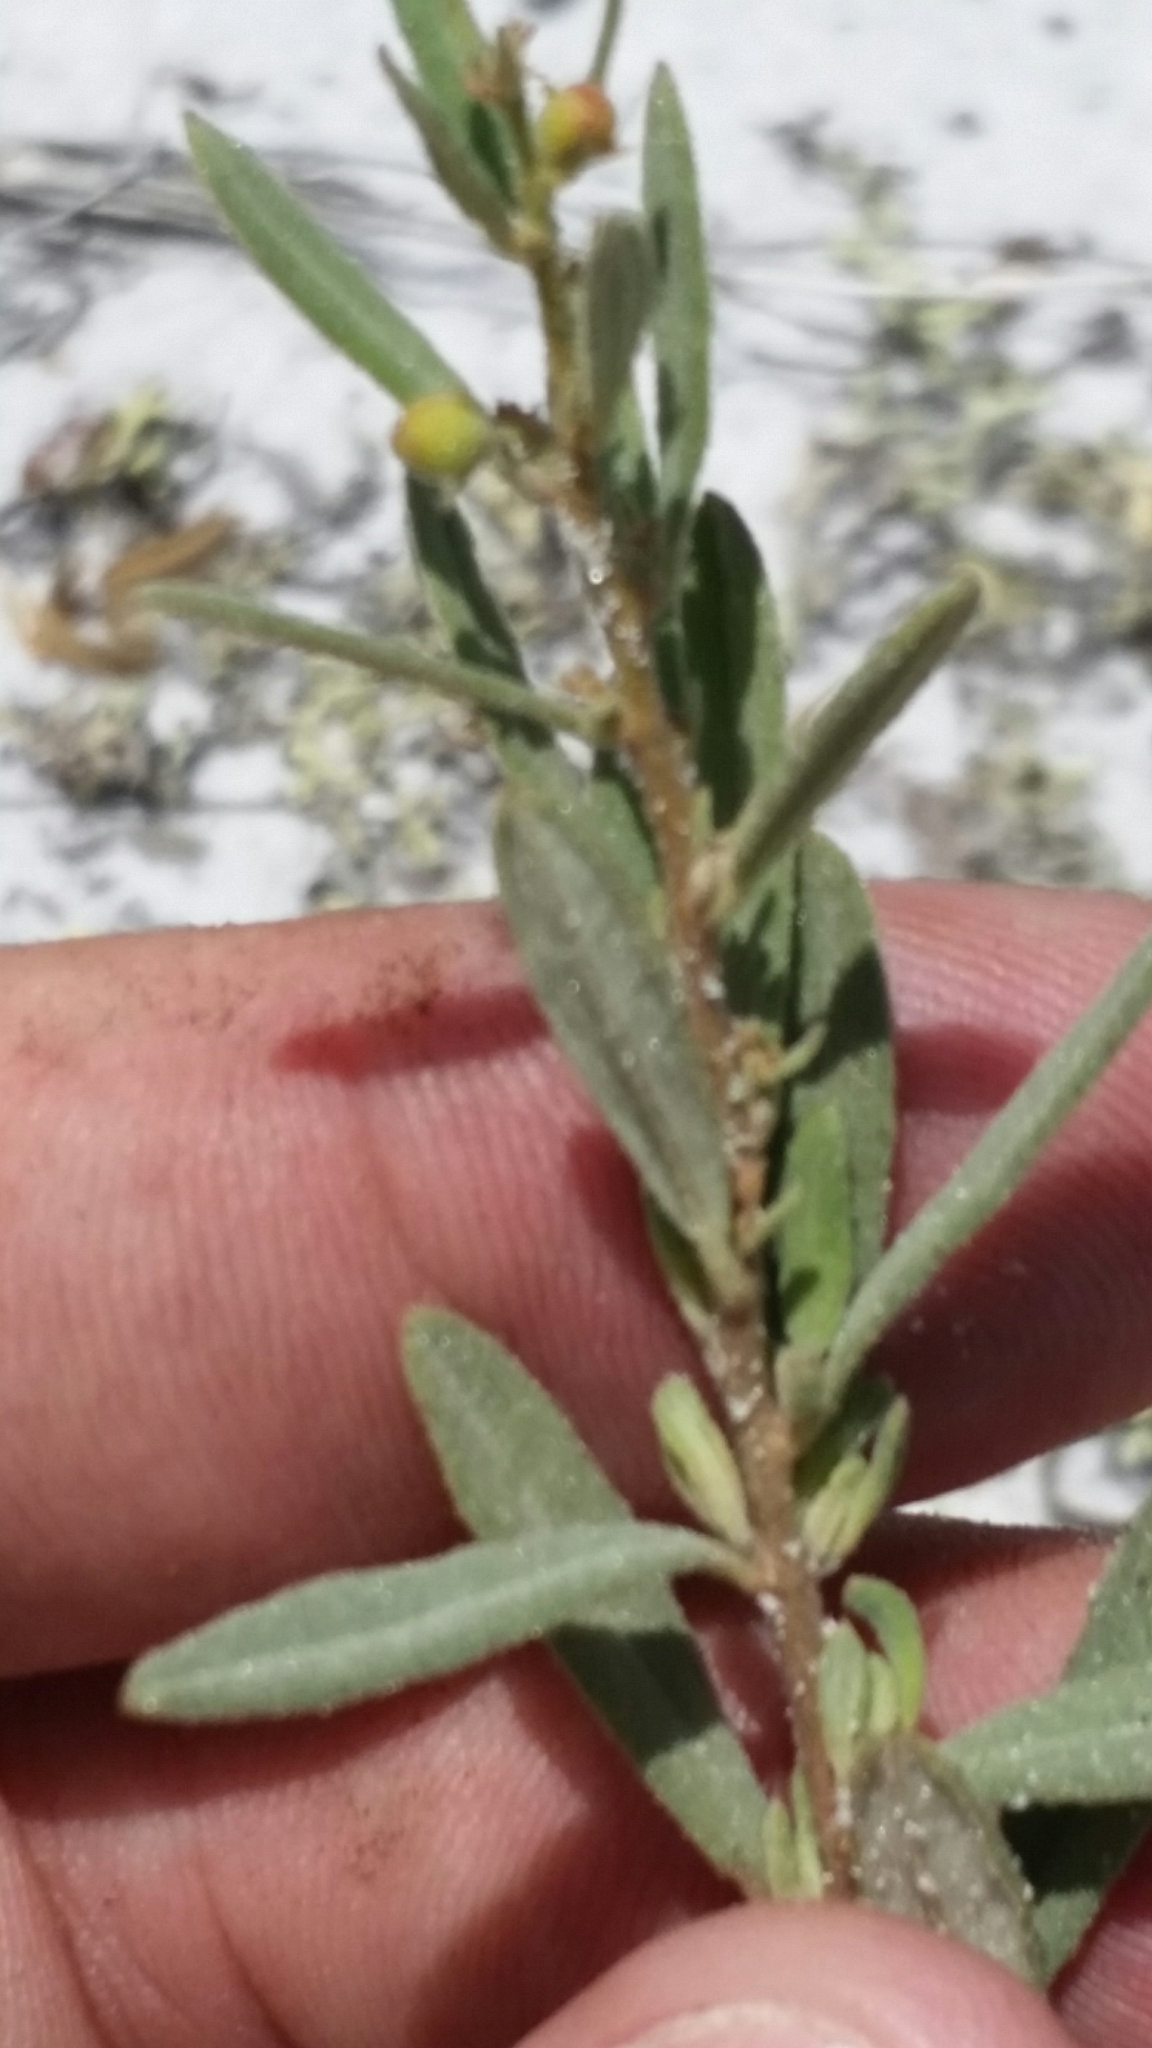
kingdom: Plantae
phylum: Tracheophyta
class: Magnoliopsida
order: Malvales
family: Cistaceae
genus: Crocanthemum
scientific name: Crocanthemum nashii
